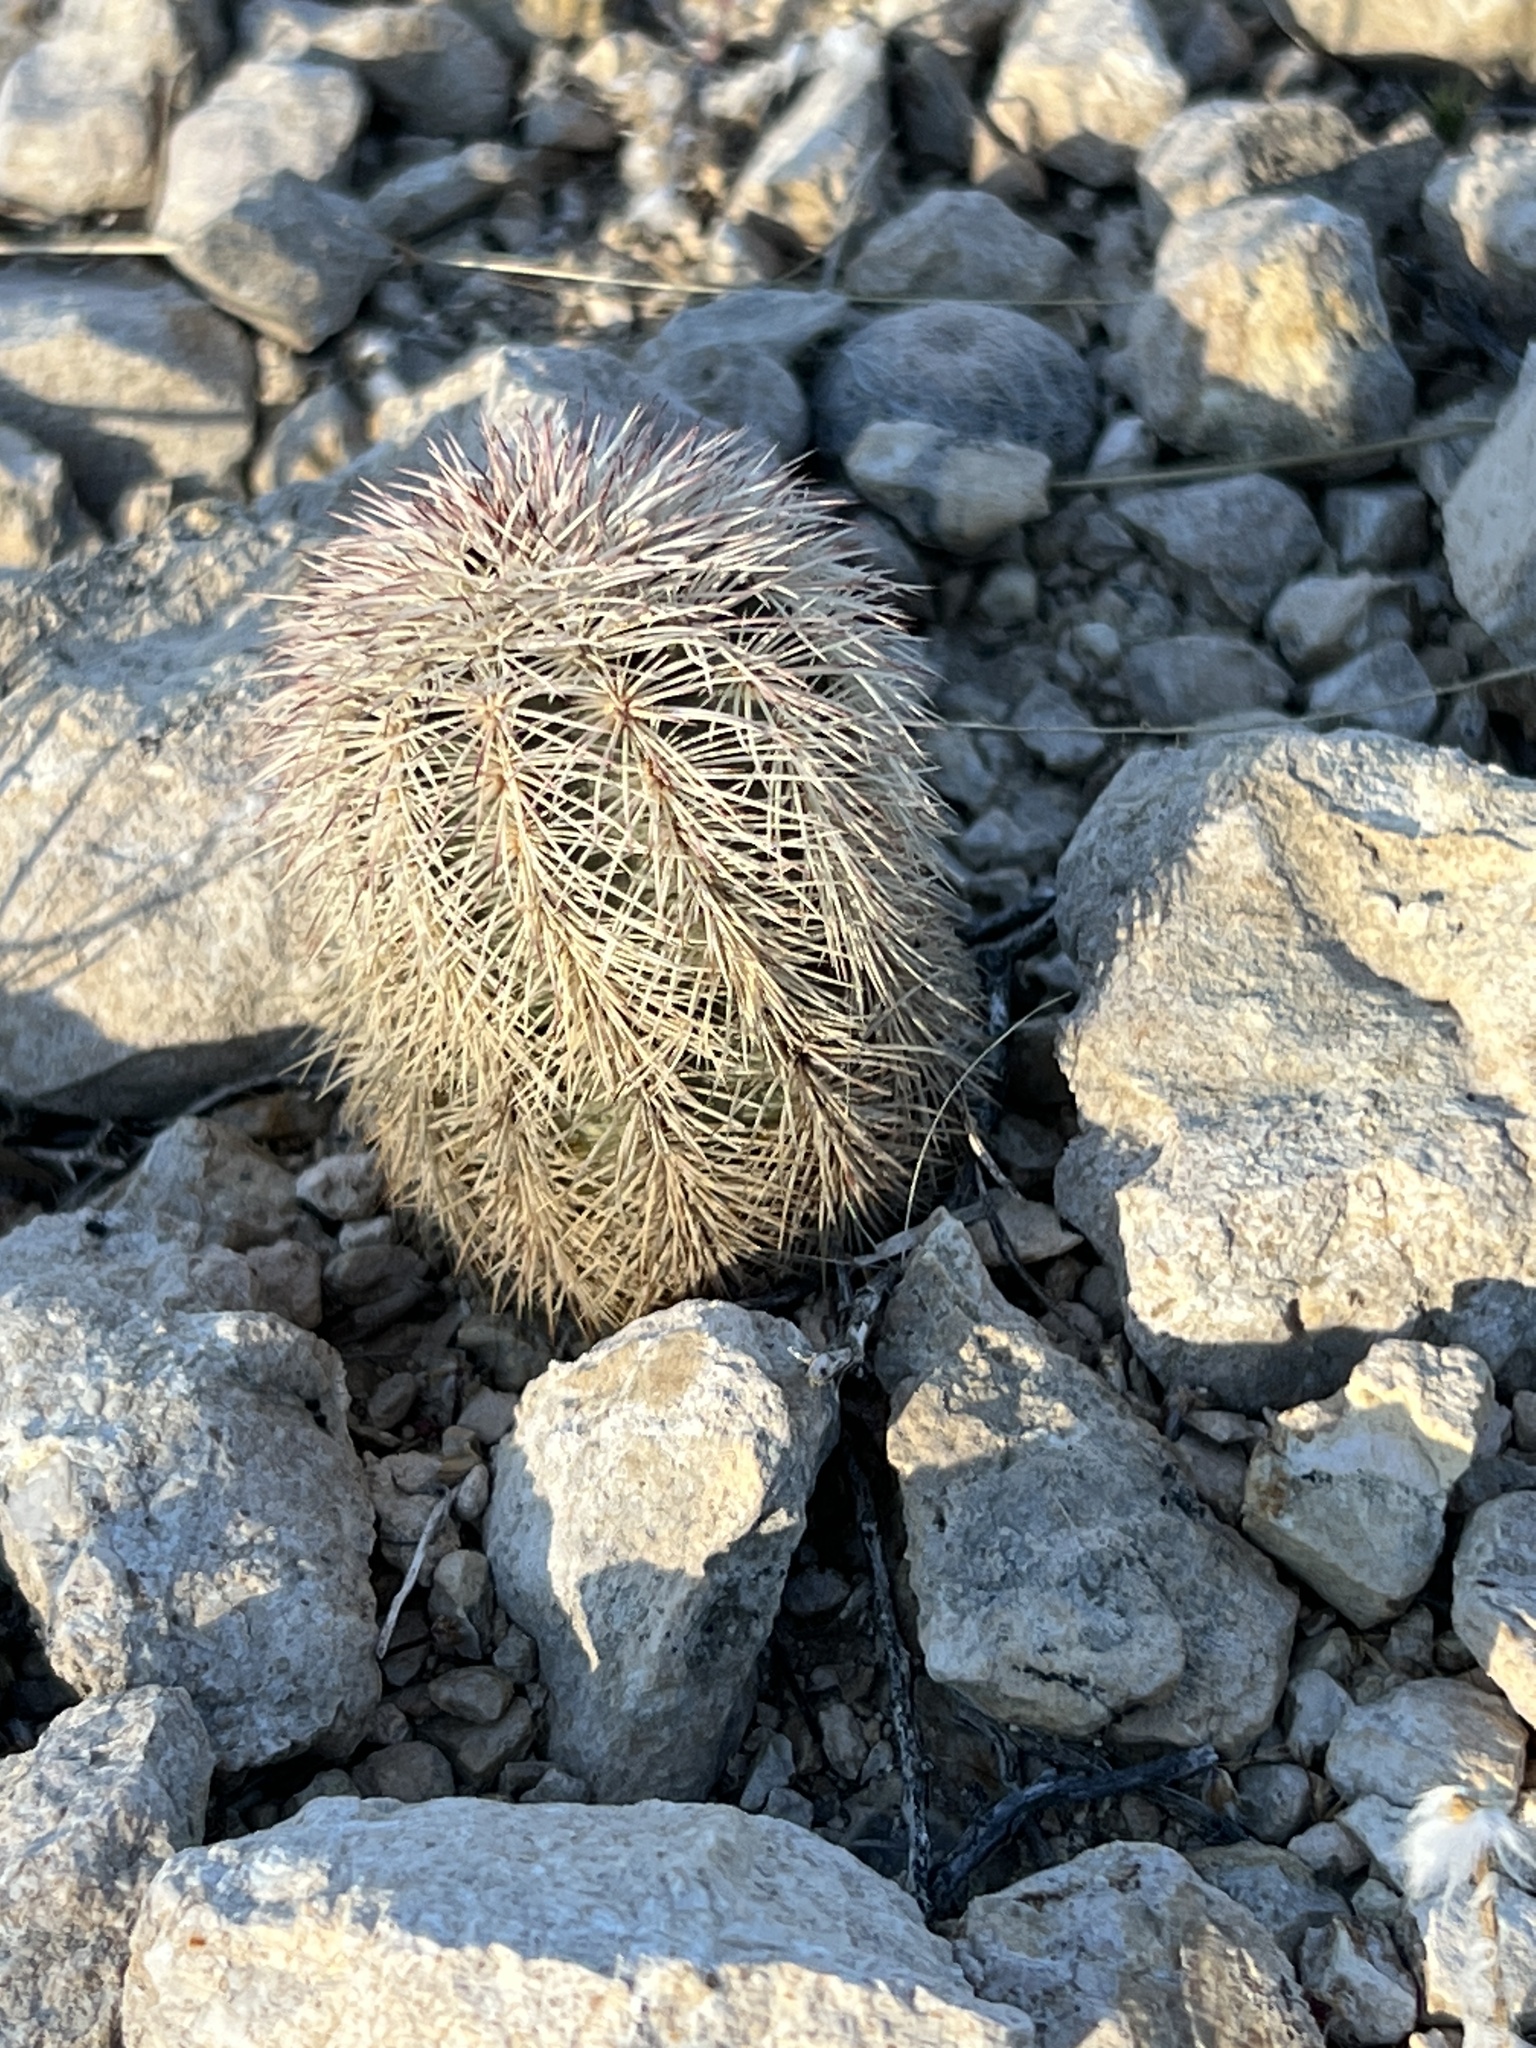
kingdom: Plantae
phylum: Tracheophyta
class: Magnoliopsida
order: Caryophyllales
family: Cactaceae
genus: Echinocereus
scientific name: Echinocereus dasyacanthus
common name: Spiny hedgehog cactus
